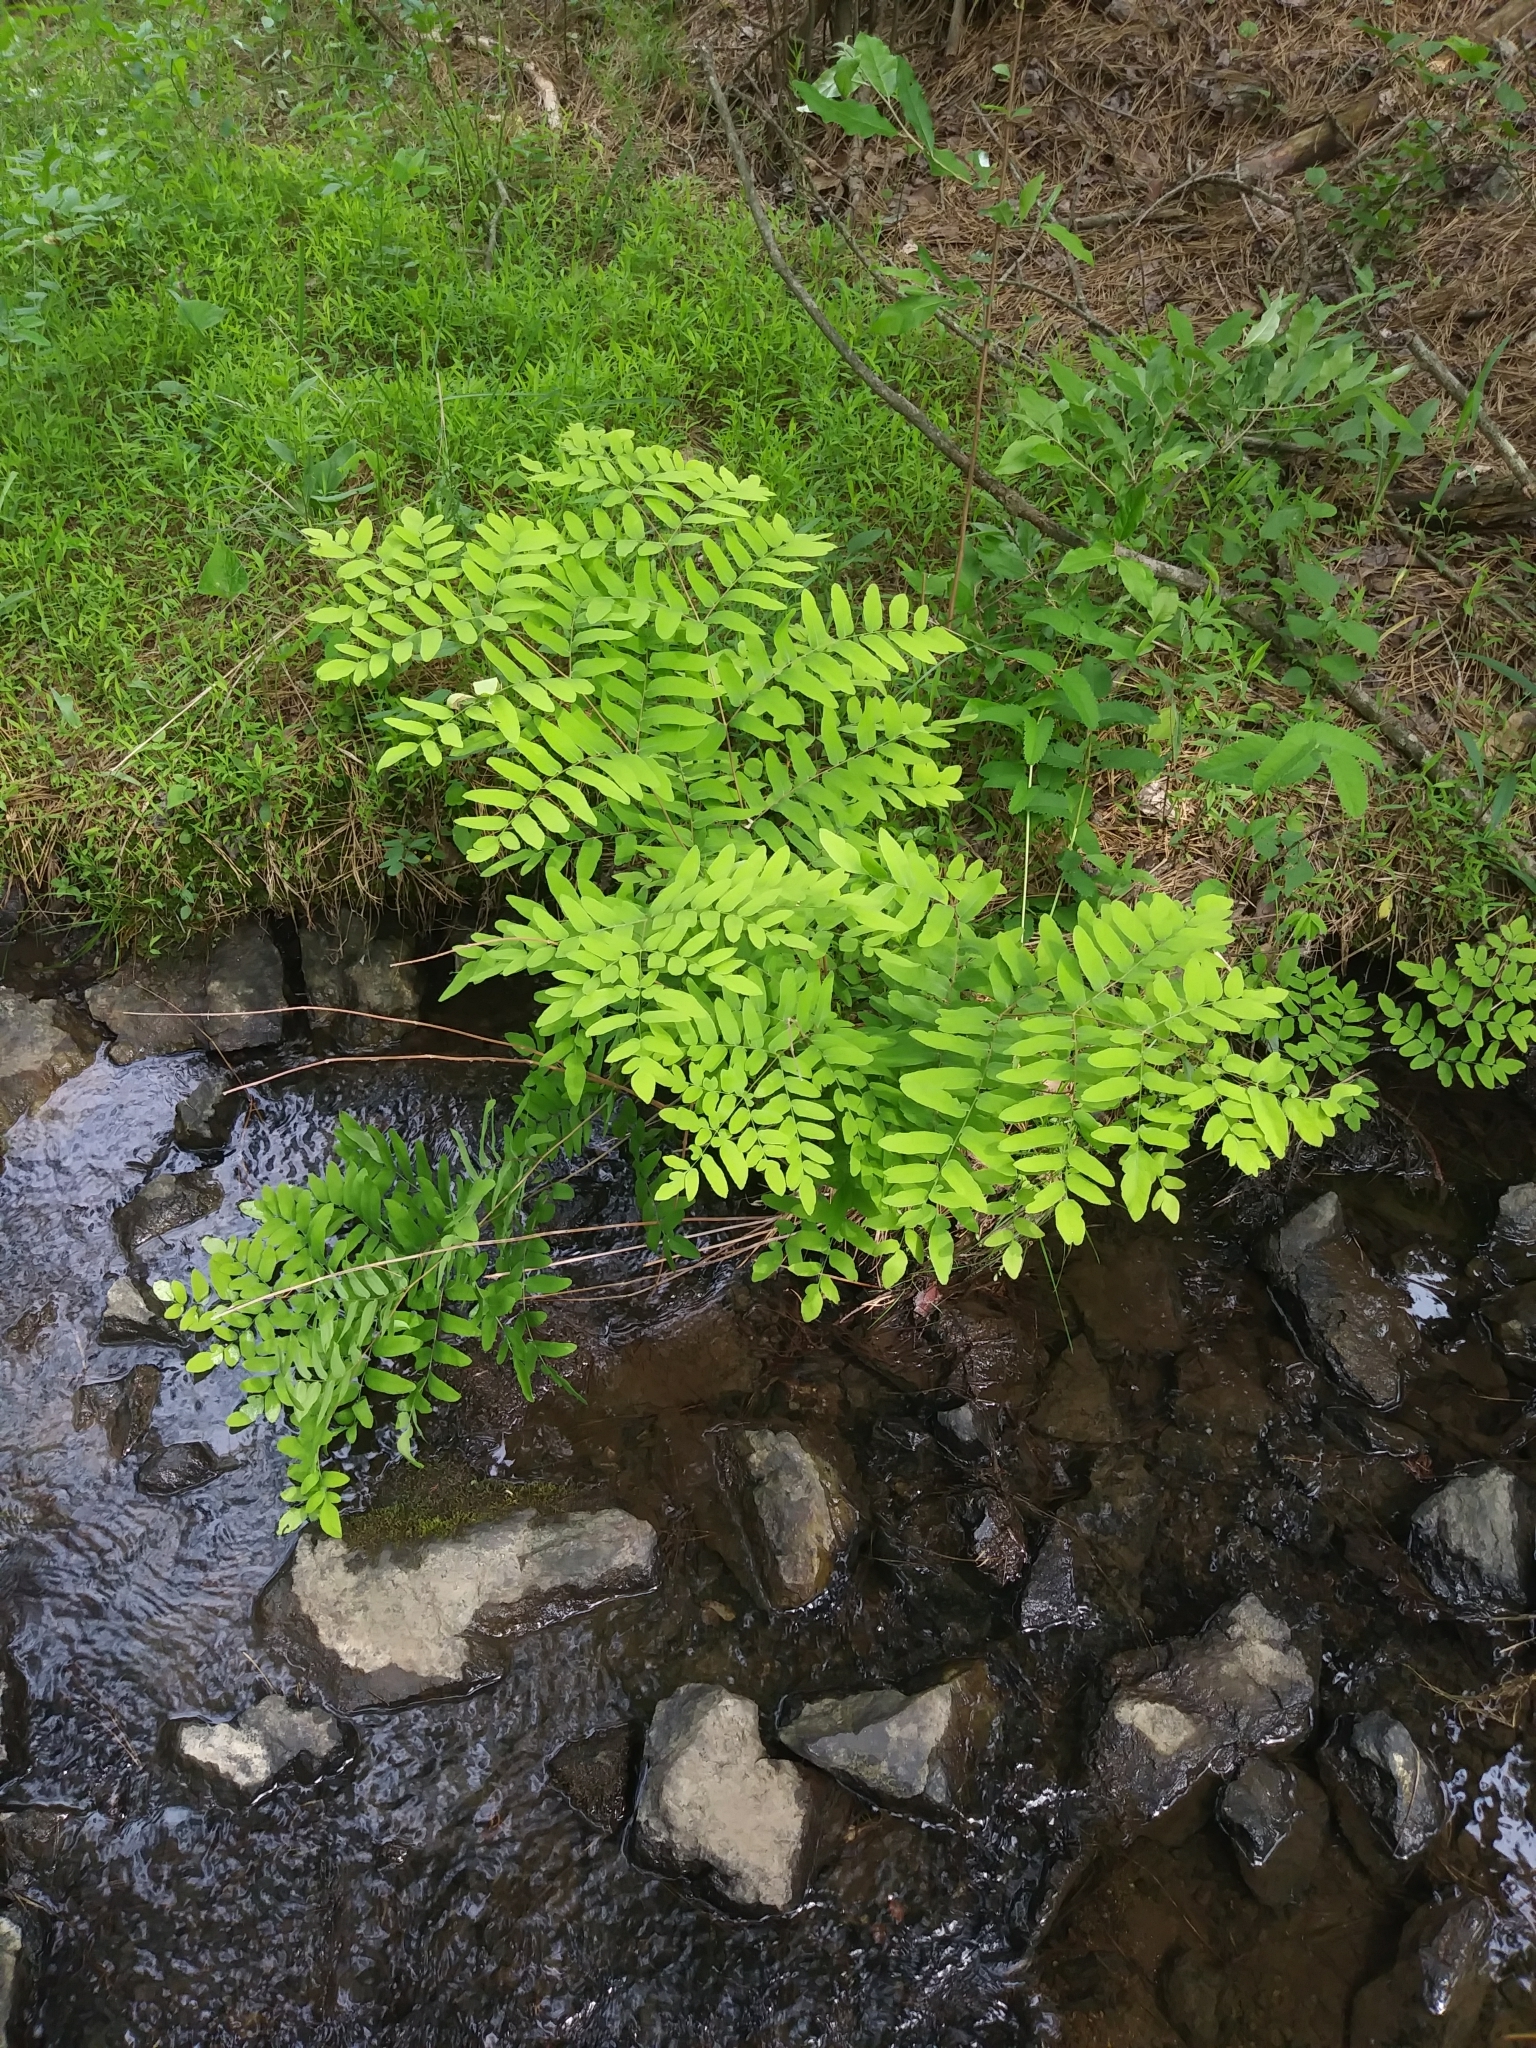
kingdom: Plantae
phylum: Tracheophyta
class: Polypodiopsida
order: Osmundales
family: Osmundaceae
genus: Osmunda
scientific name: Osmunda spectabilis
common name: American royal fern
